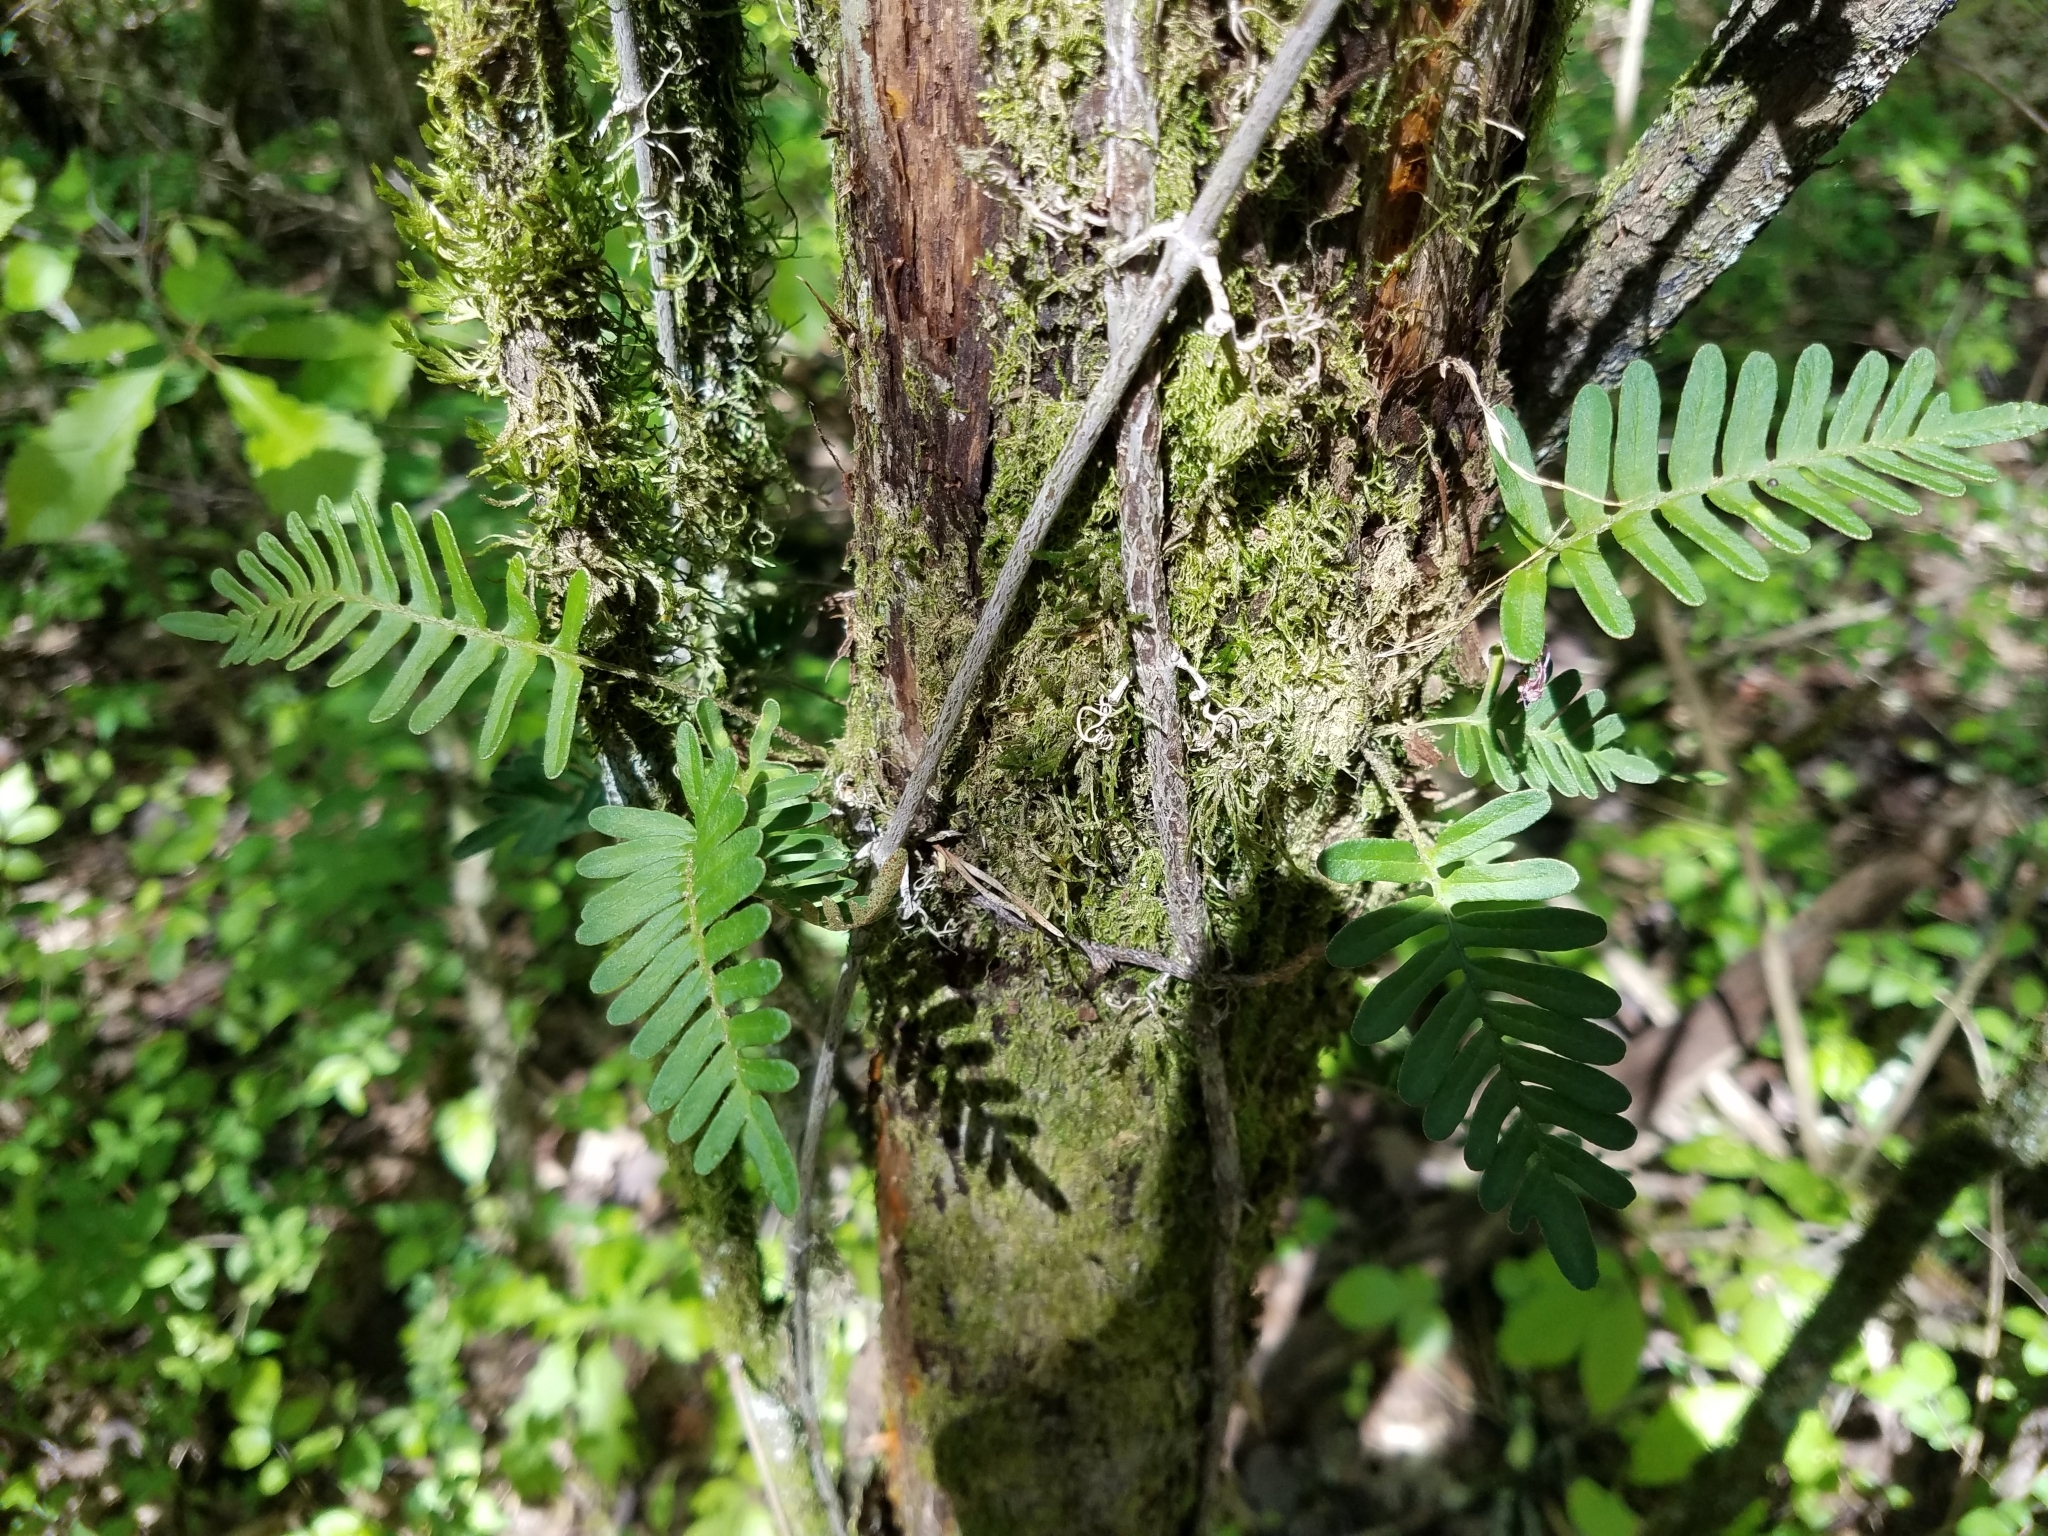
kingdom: Plantae
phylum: Tracheophyta
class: Polypodiopsida
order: Polypodiales
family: Polypodiaceae
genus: Pleopeltis
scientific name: Pleopeltis michauxiana
